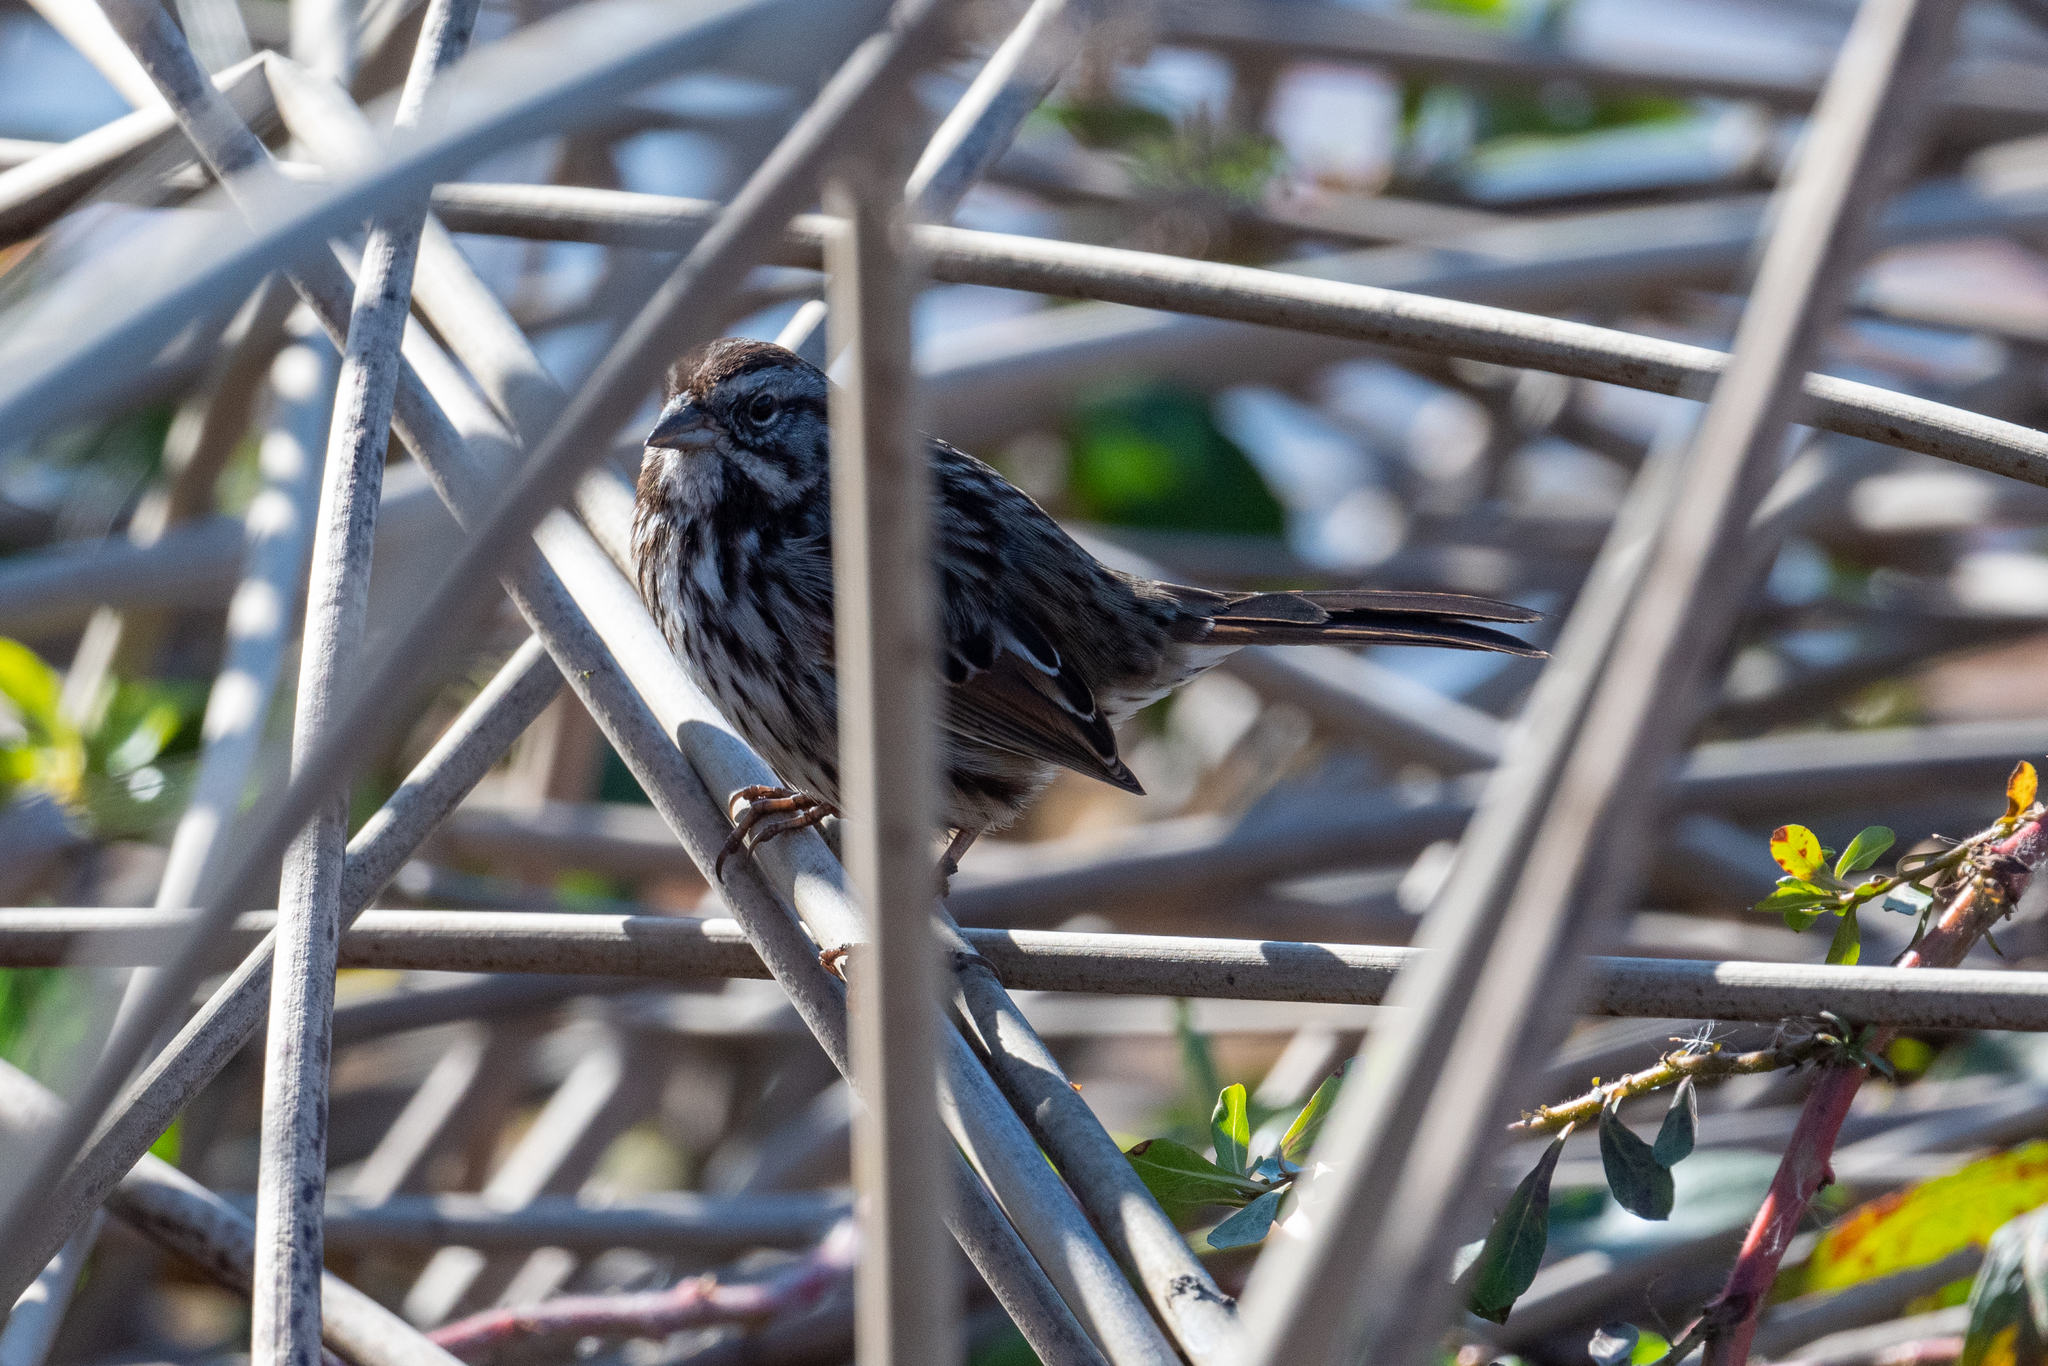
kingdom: Animalia
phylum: Chordata
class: Aves
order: Passeriformes
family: Passerellidae
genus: Melospiza
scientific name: Melospiza melodia
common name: Song sparrow
